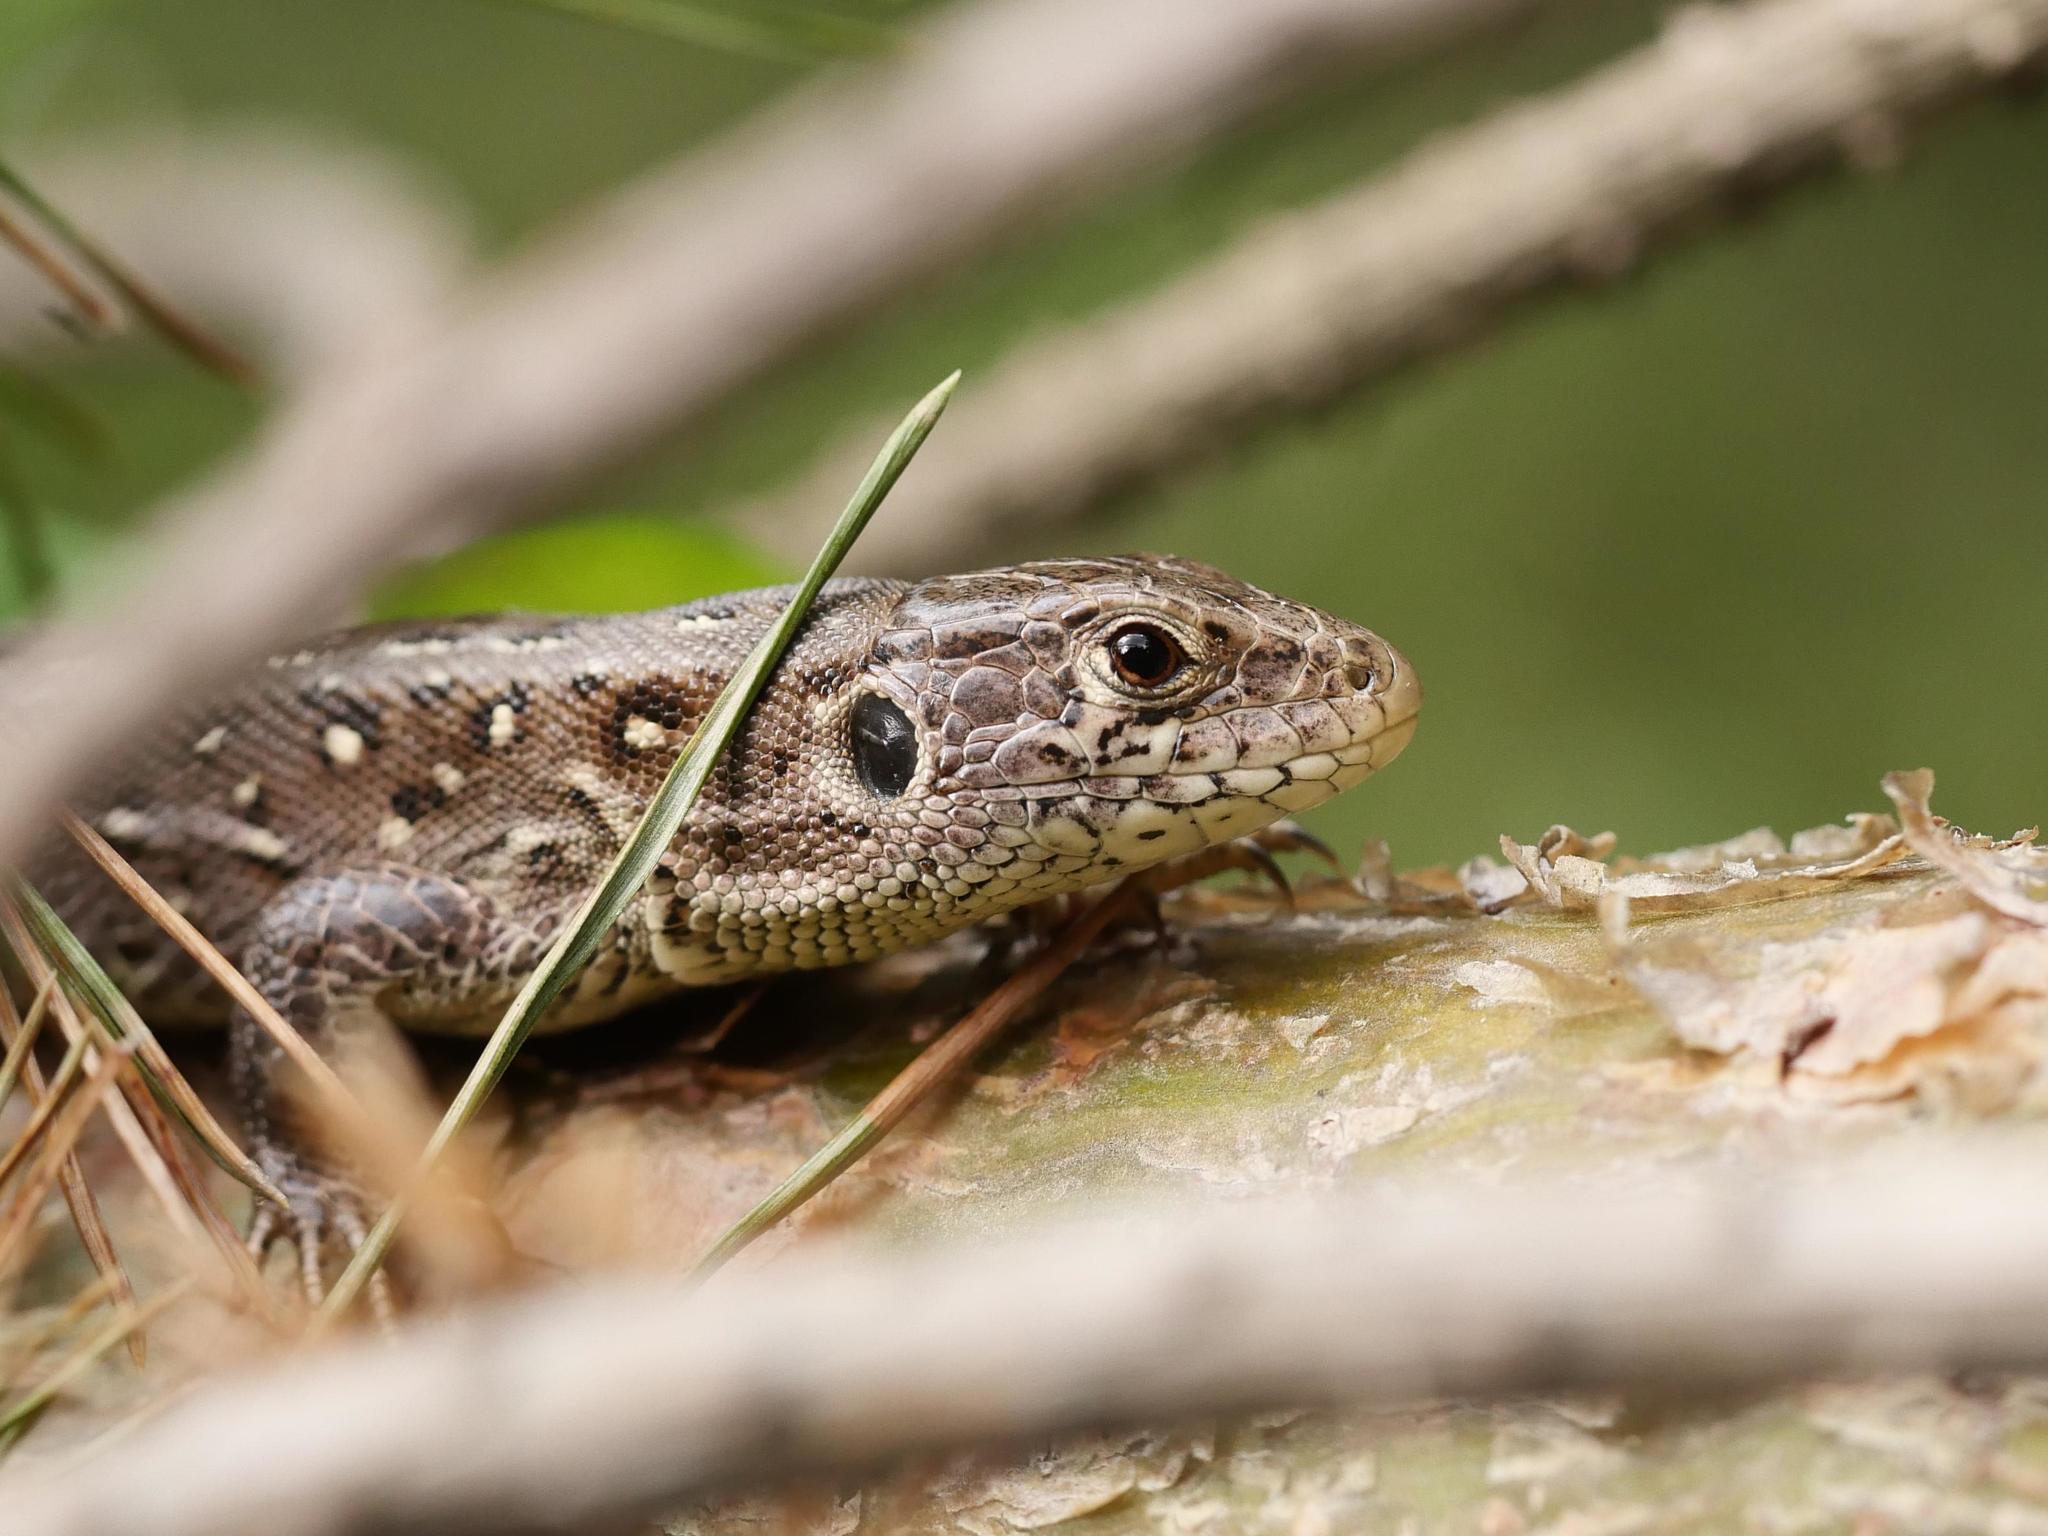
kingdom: Animalia
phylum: Chordata
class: Squamata
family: Lacertidae
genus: Lacerta
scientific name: Lacerta agilis
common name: Sand lizard
